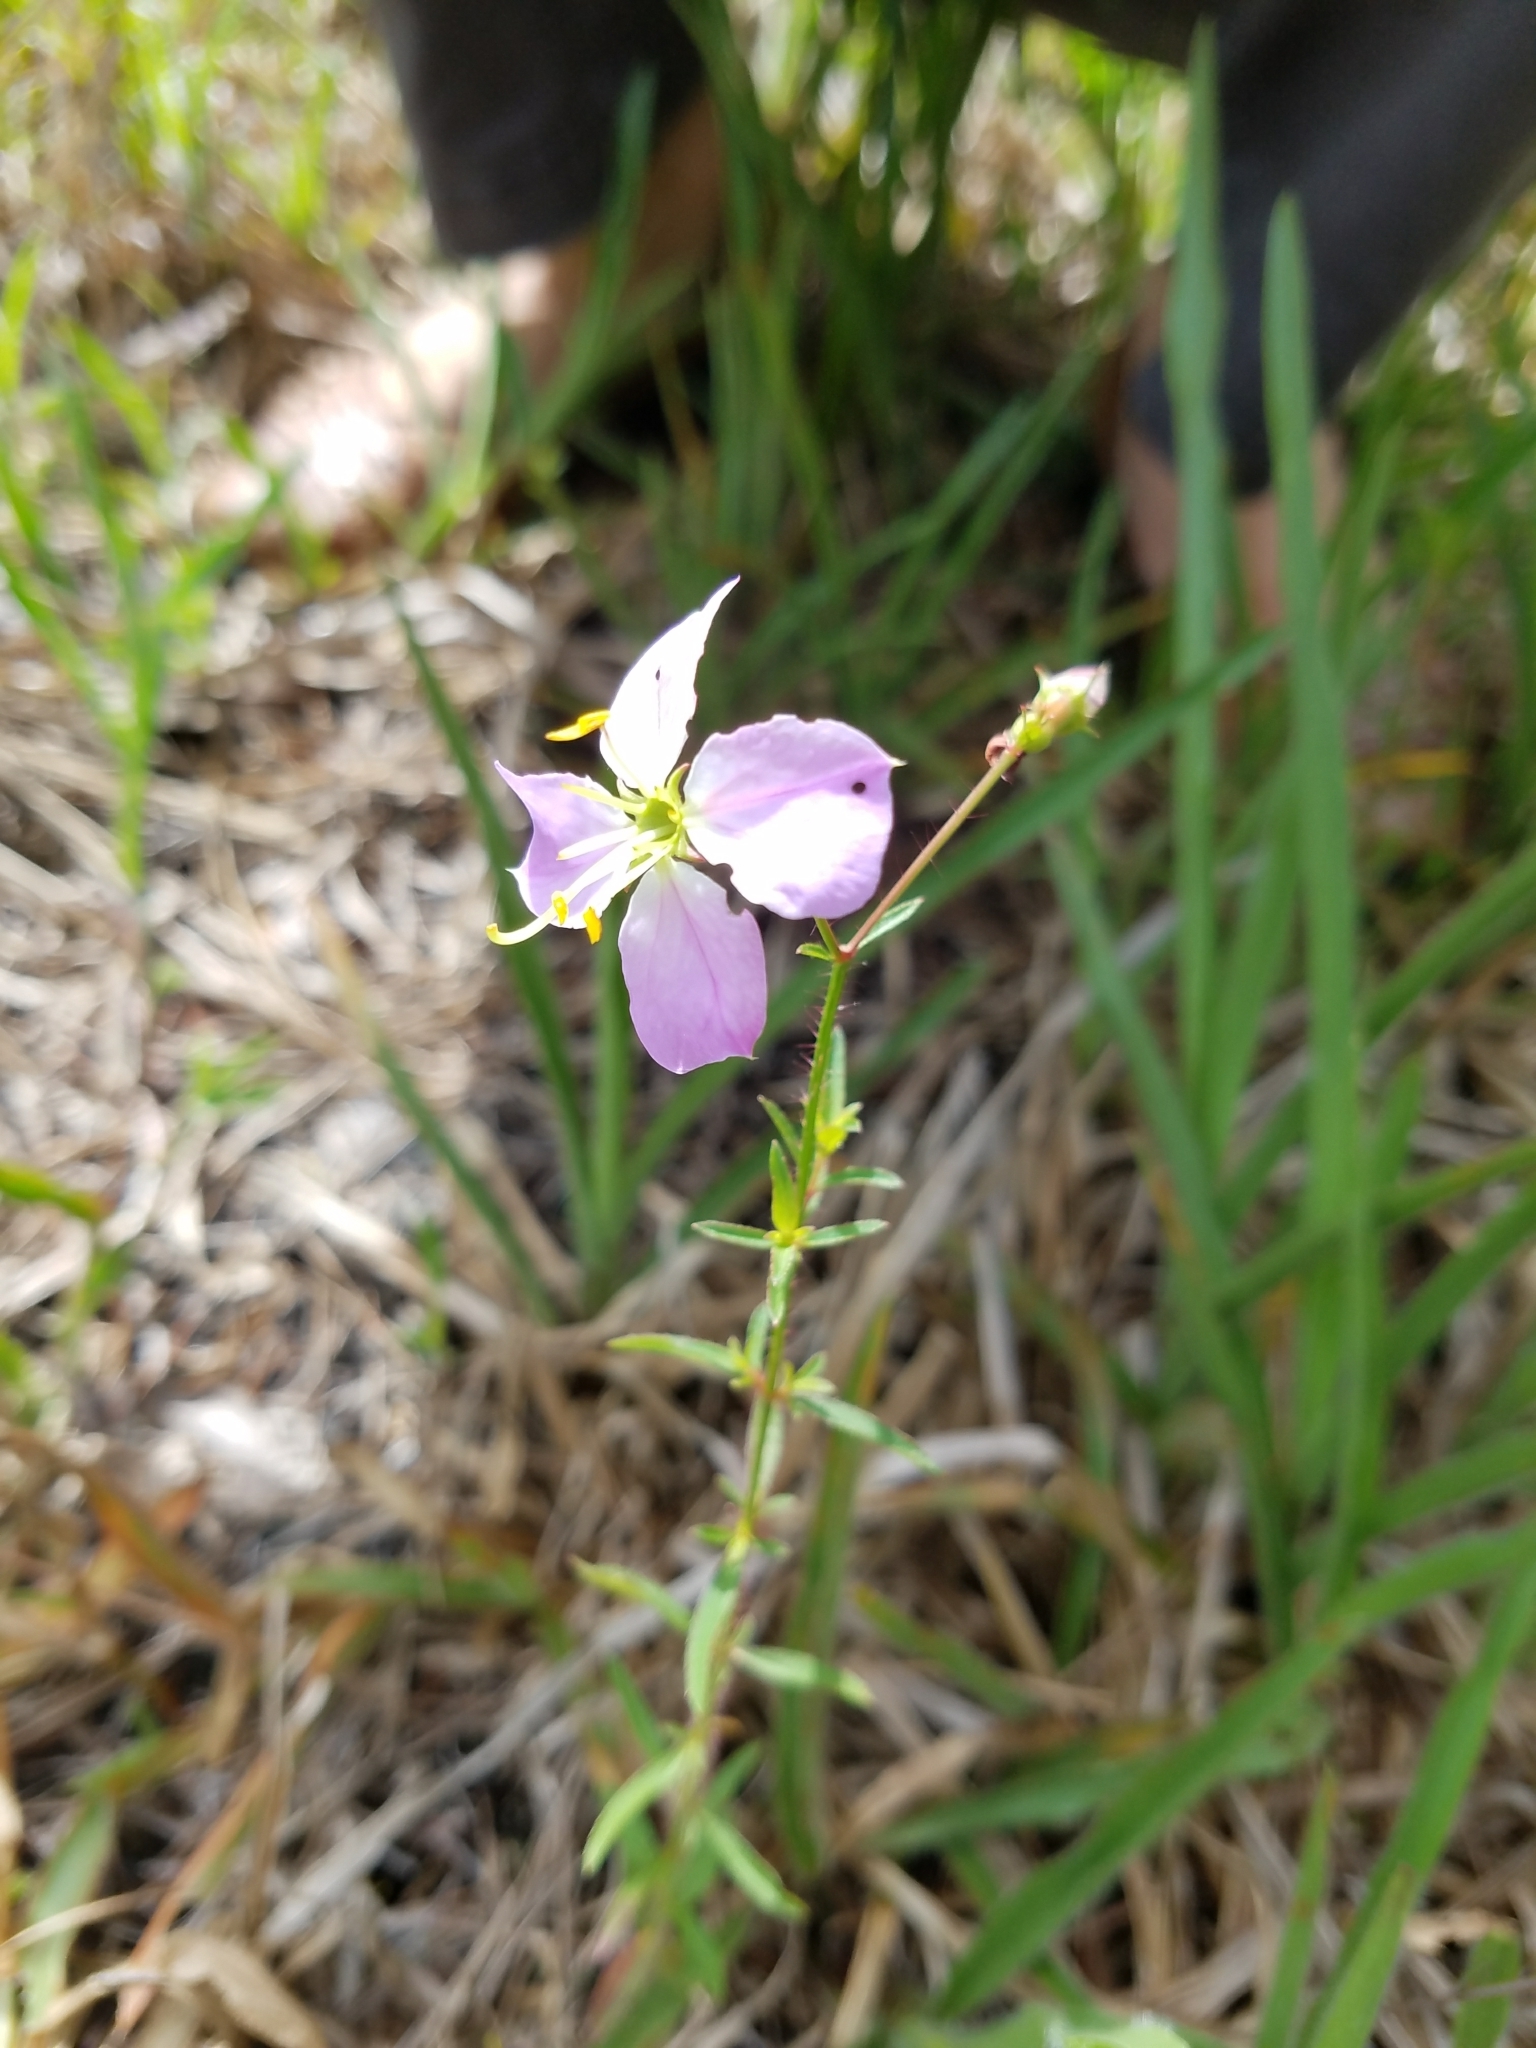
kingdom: Plantae
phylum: Tracheophyta
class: Magnoliopsida
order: Myrtales
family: Melastomataceae
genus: Rhexia
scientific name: Rhexia mariana
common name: Dull meadow-pitcher
